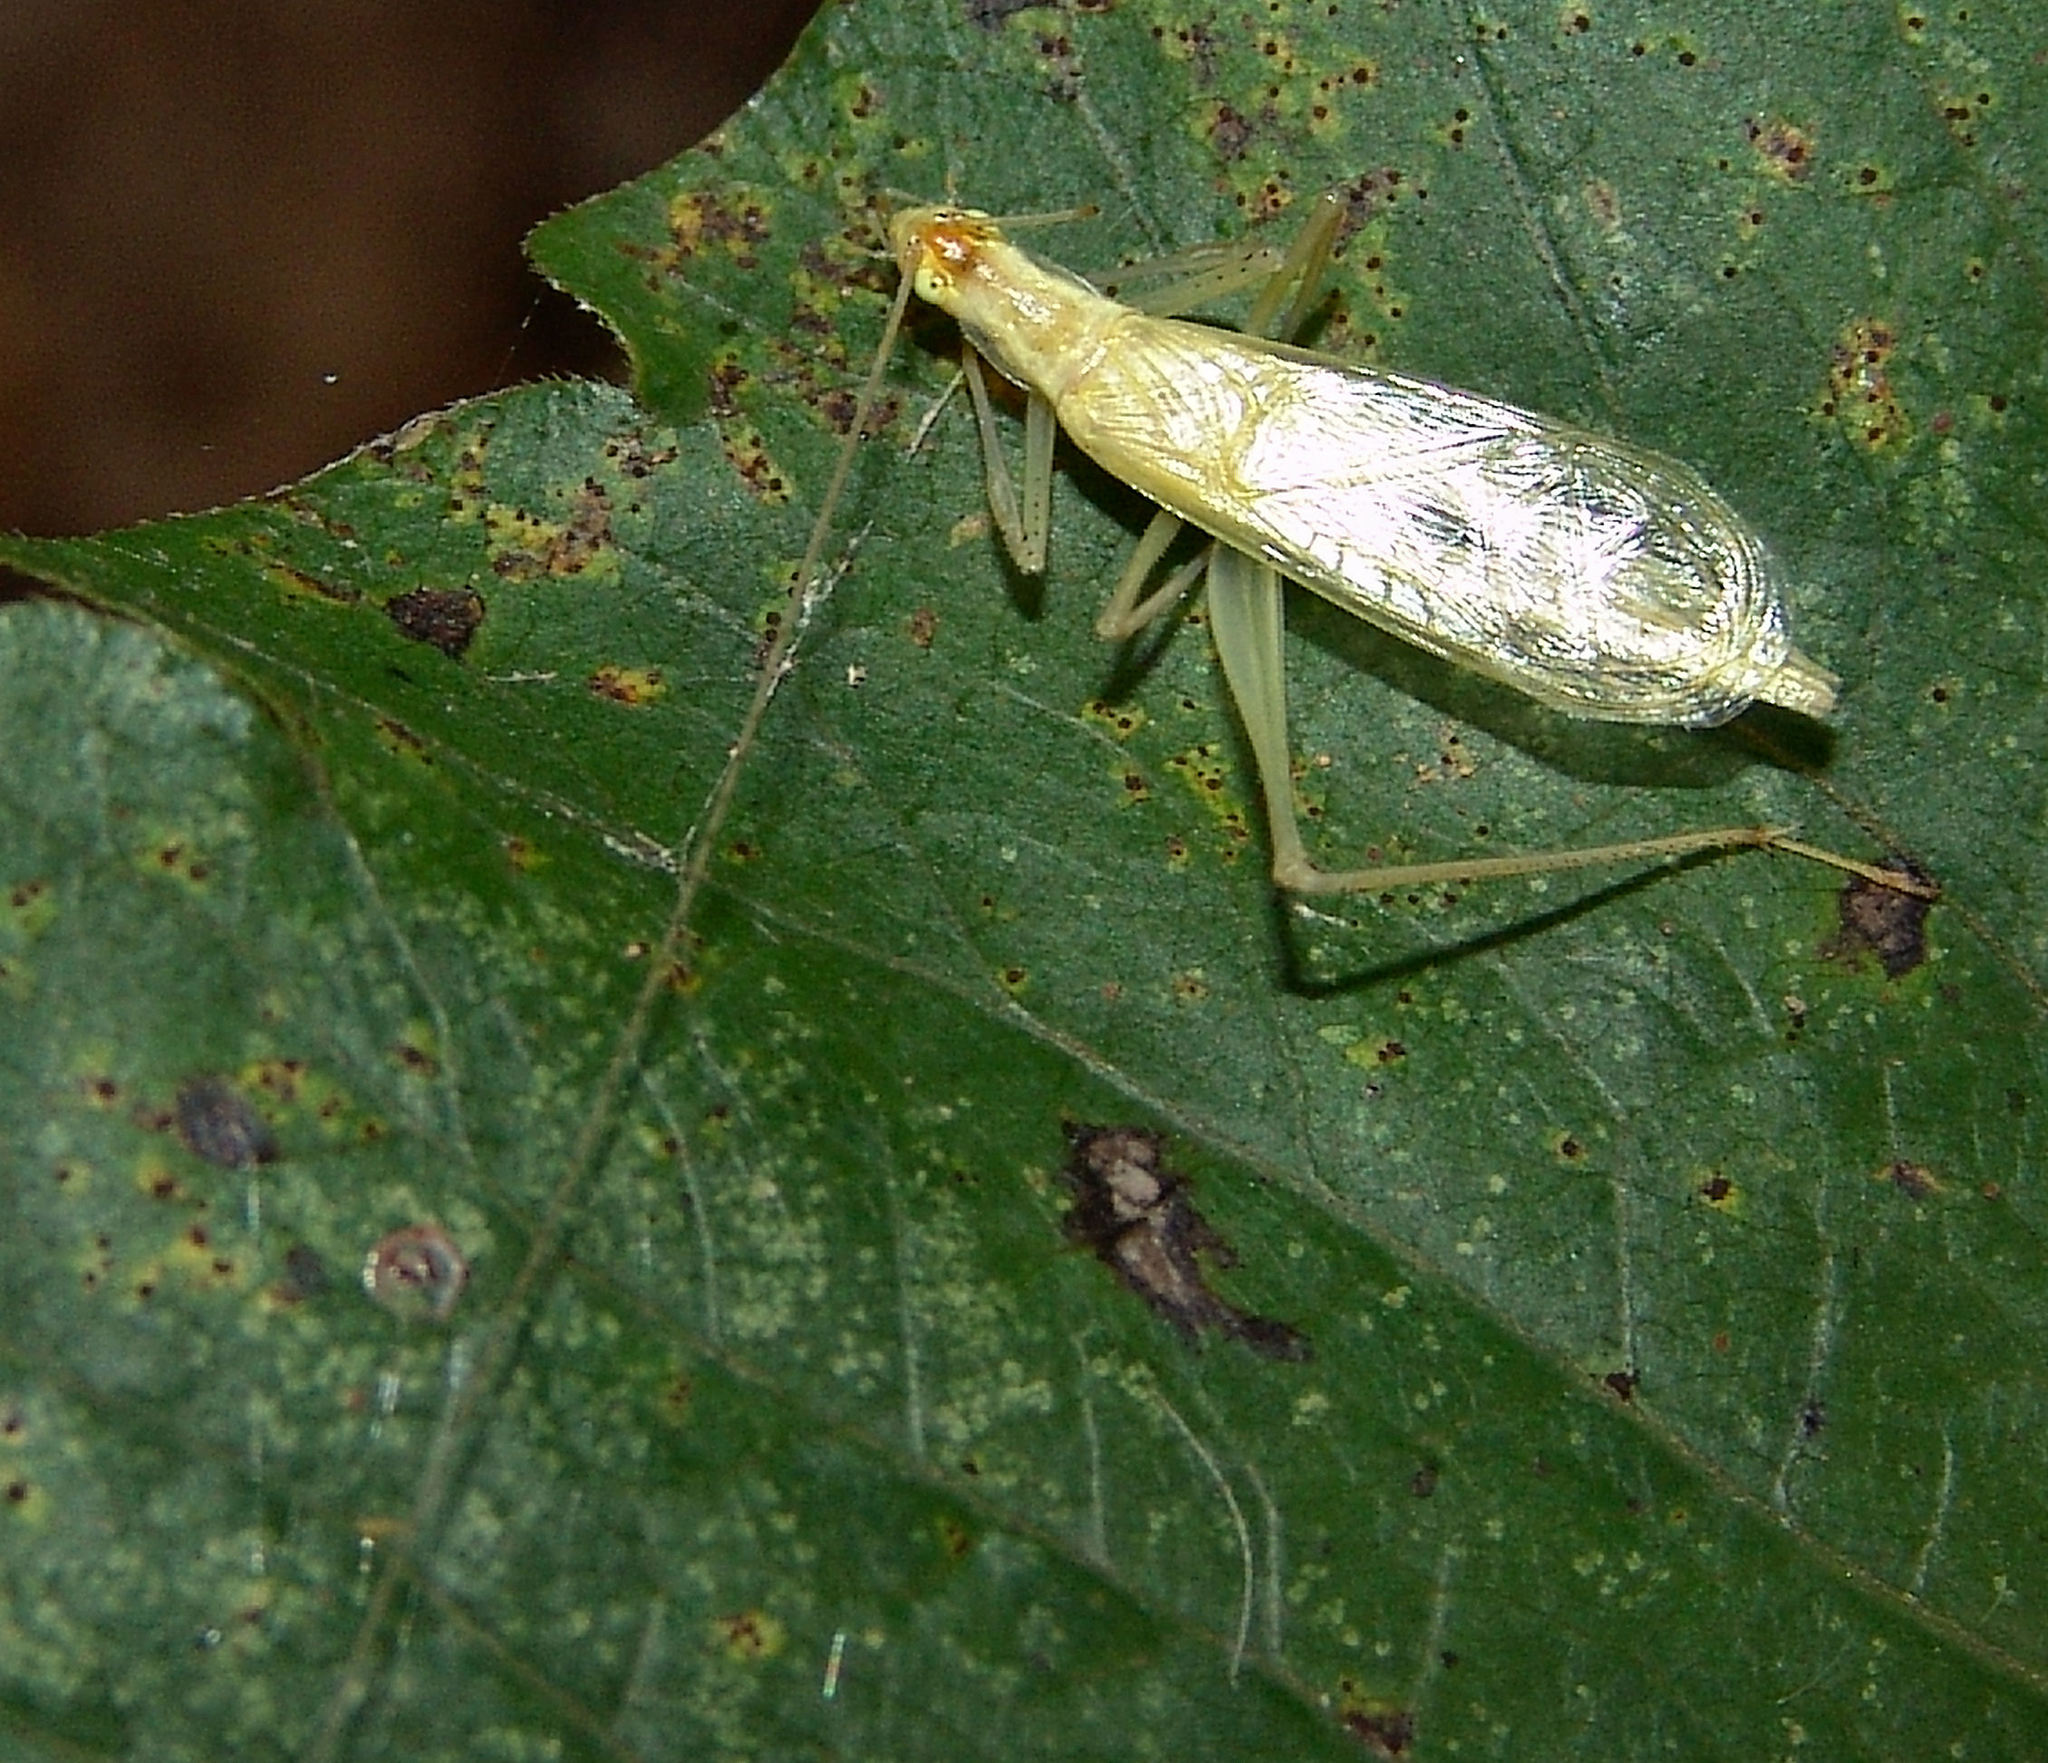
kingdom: Animalia
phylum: Arthropoda
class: Insecta
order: Orthoptera
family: Gryllidae
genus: Oecanthus
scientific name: Oecanthus niveus
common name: Narrow-winged tree cricket
